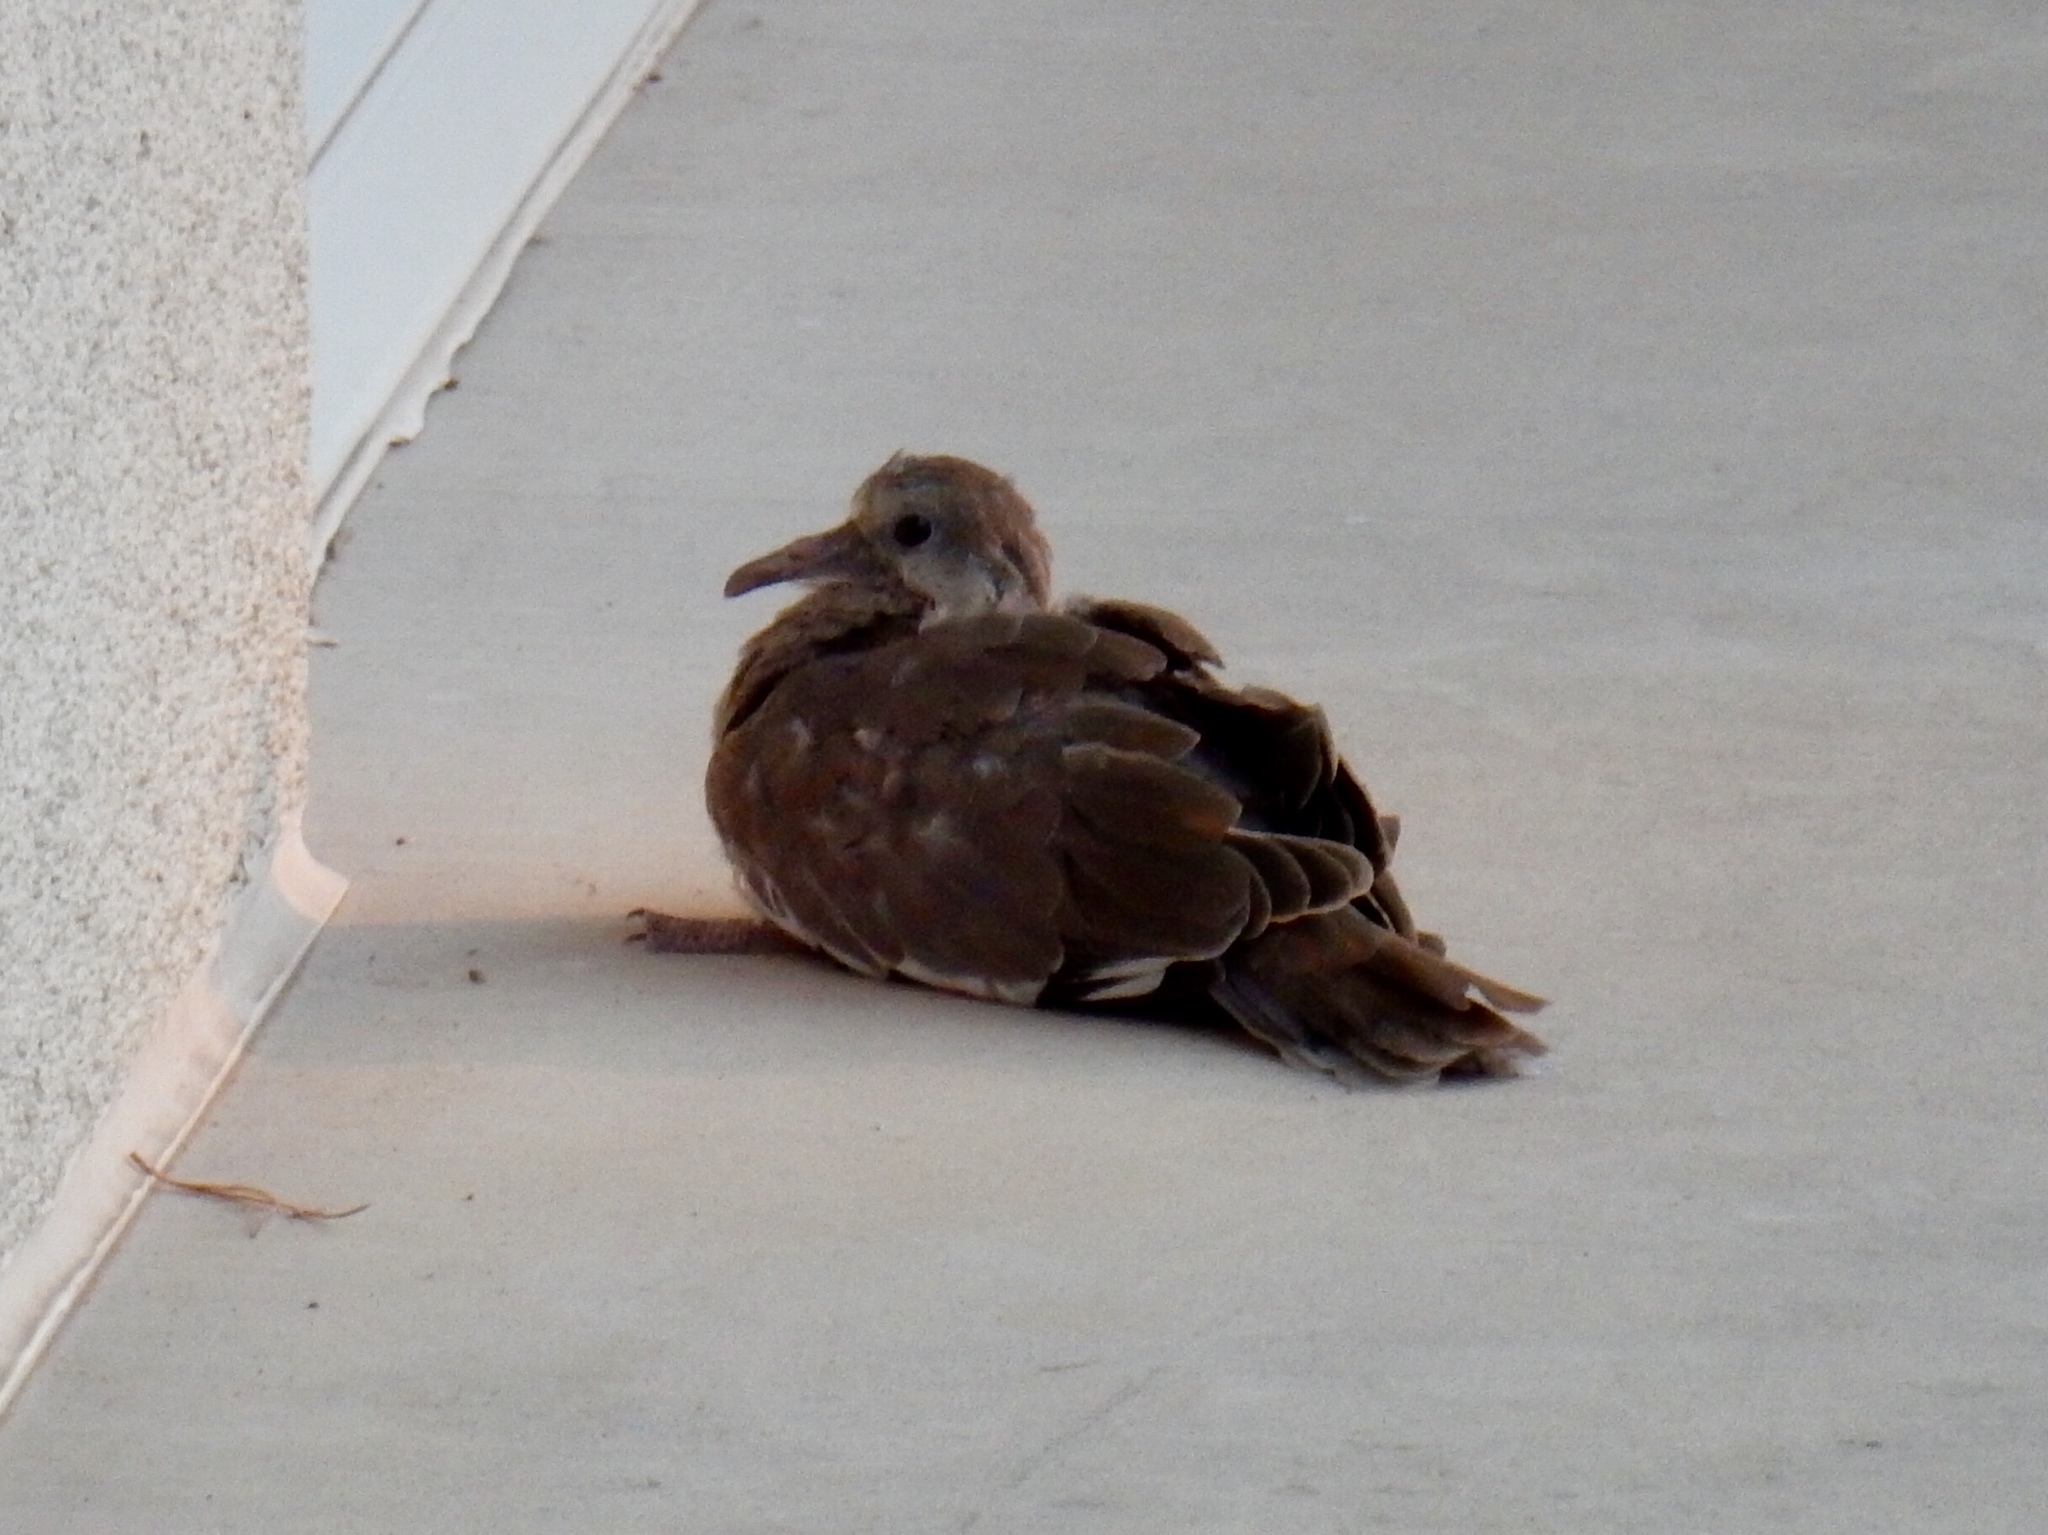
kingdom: Animalia
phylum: Chordata
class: Aves
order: Columbiformes
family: Columbidae
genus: Streptopelia
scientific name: Streptopelia decaocto
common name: Eurasian collared dove
